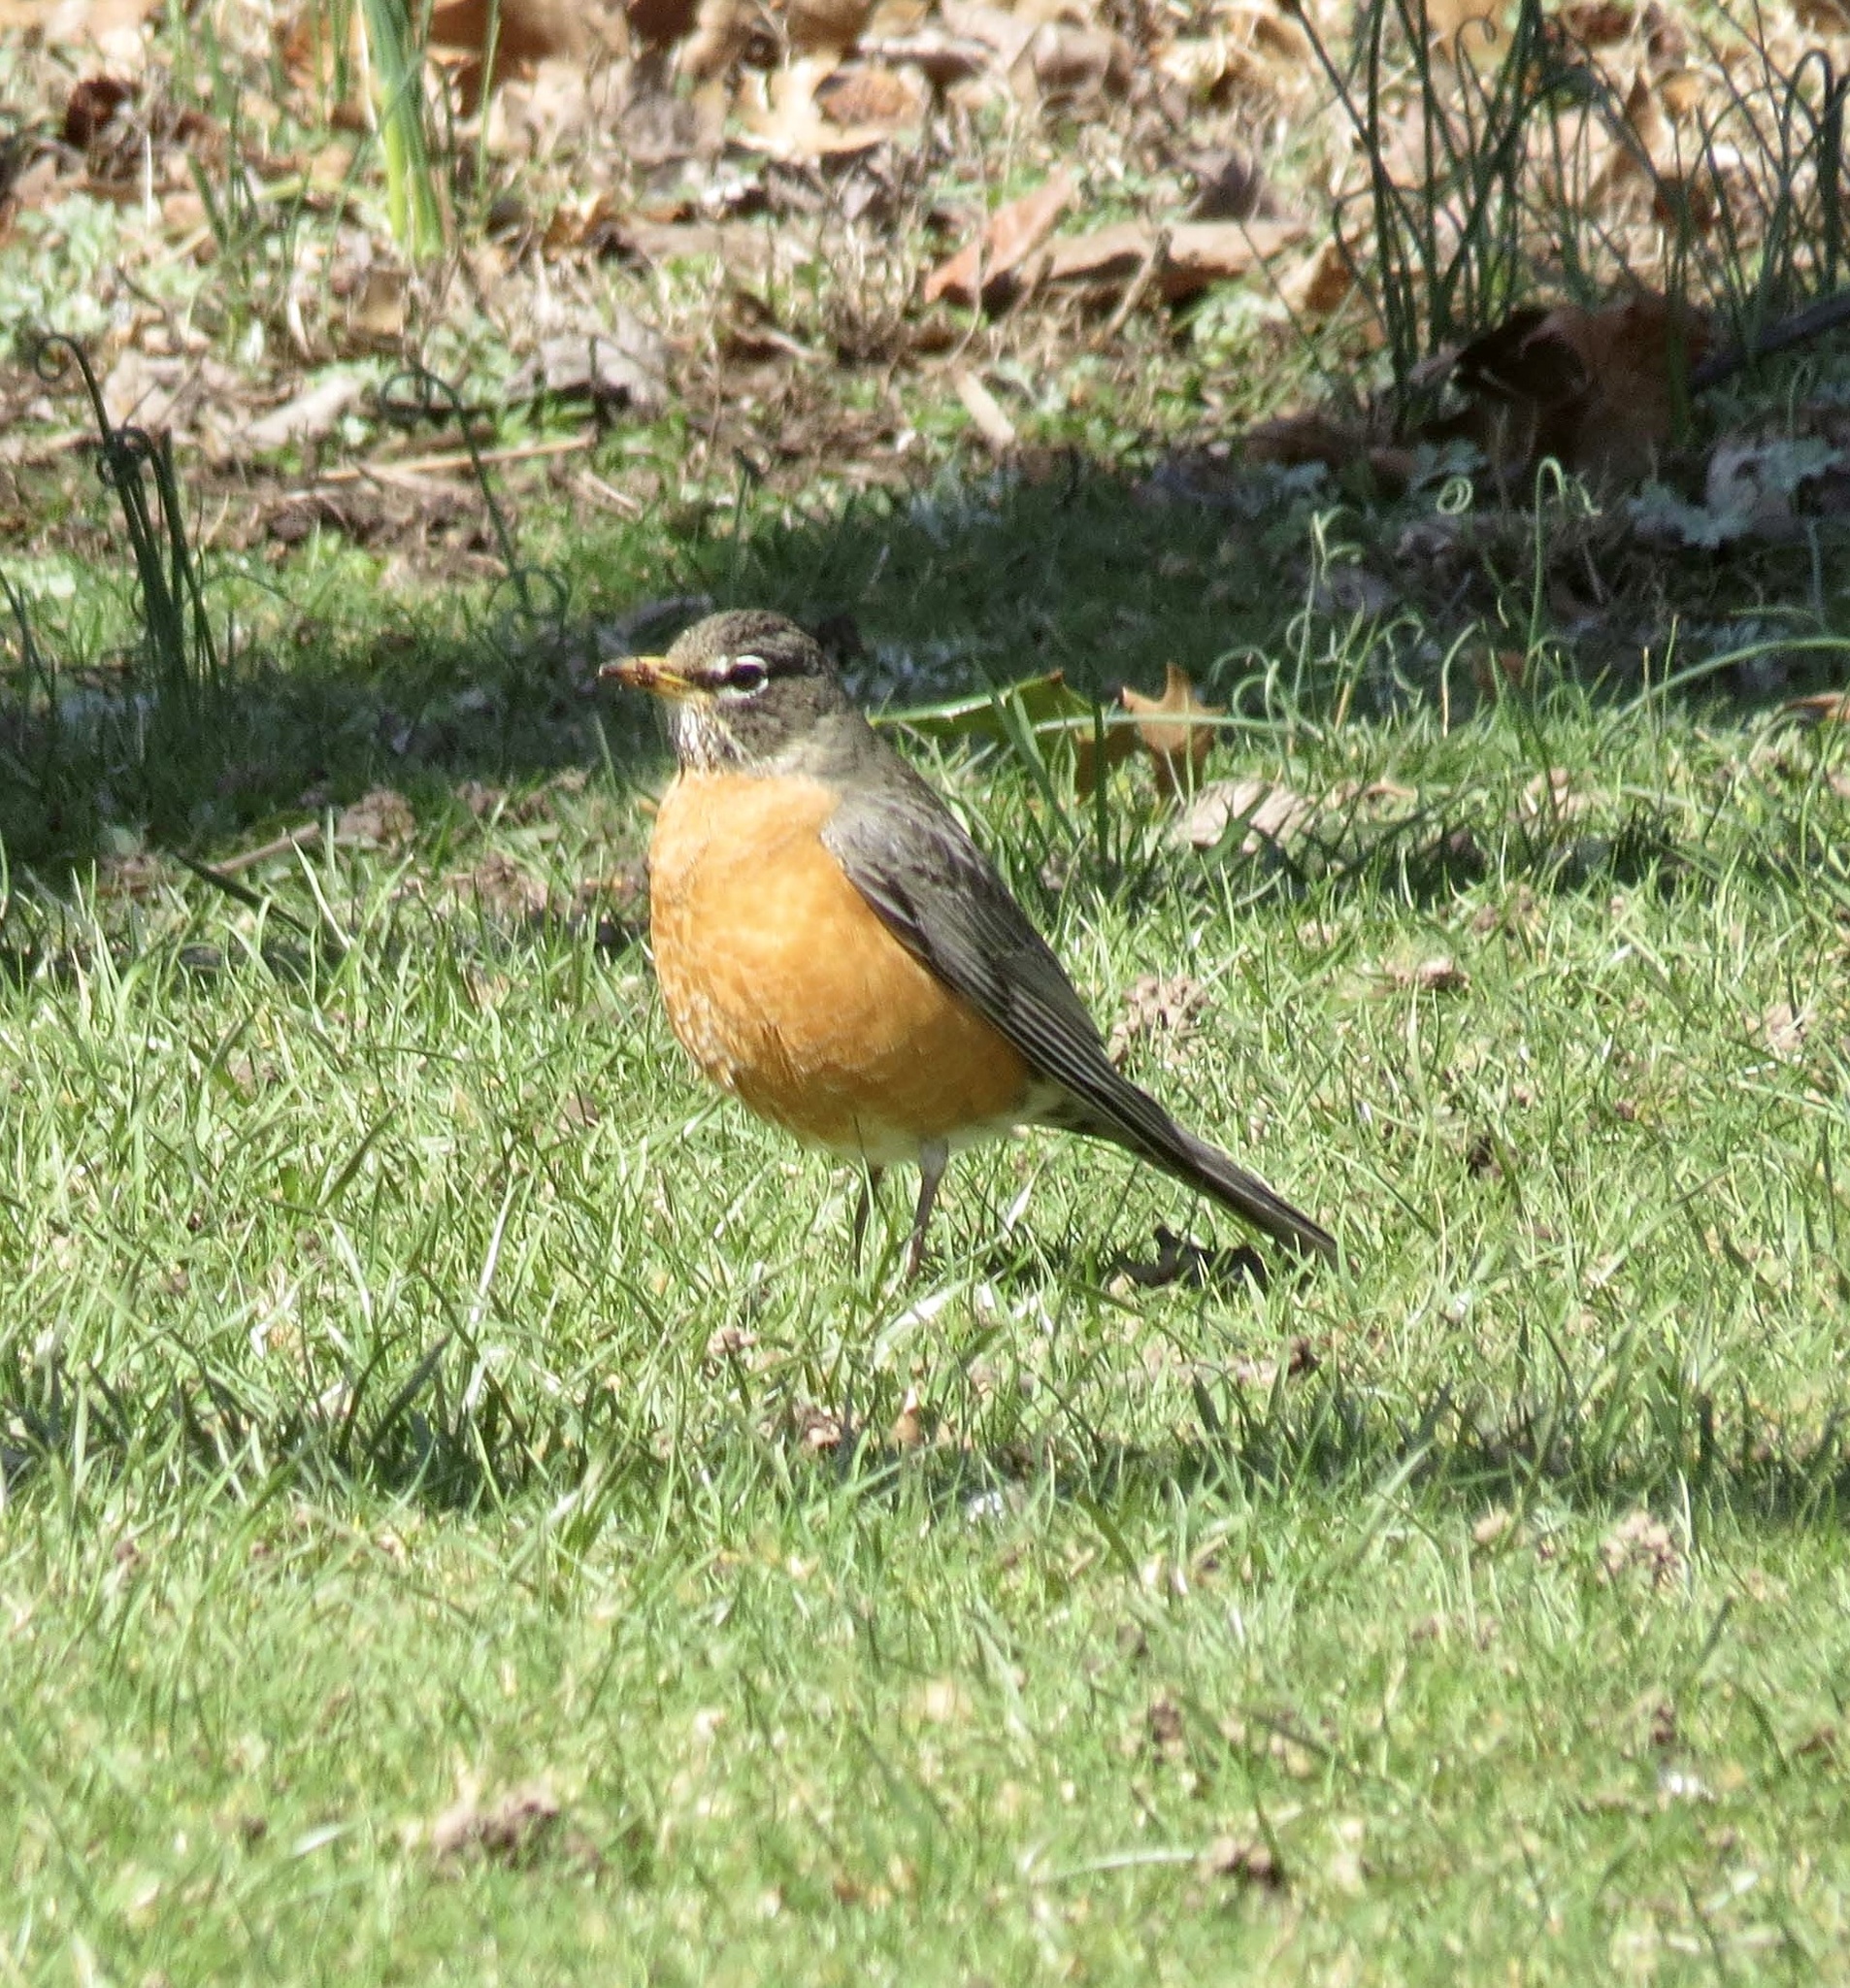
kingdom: Animalia
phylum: Chordata
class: Aves
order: Passeriformes
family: Turdidae
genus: Turdus
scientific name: Turdus migratorius
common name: American robin
